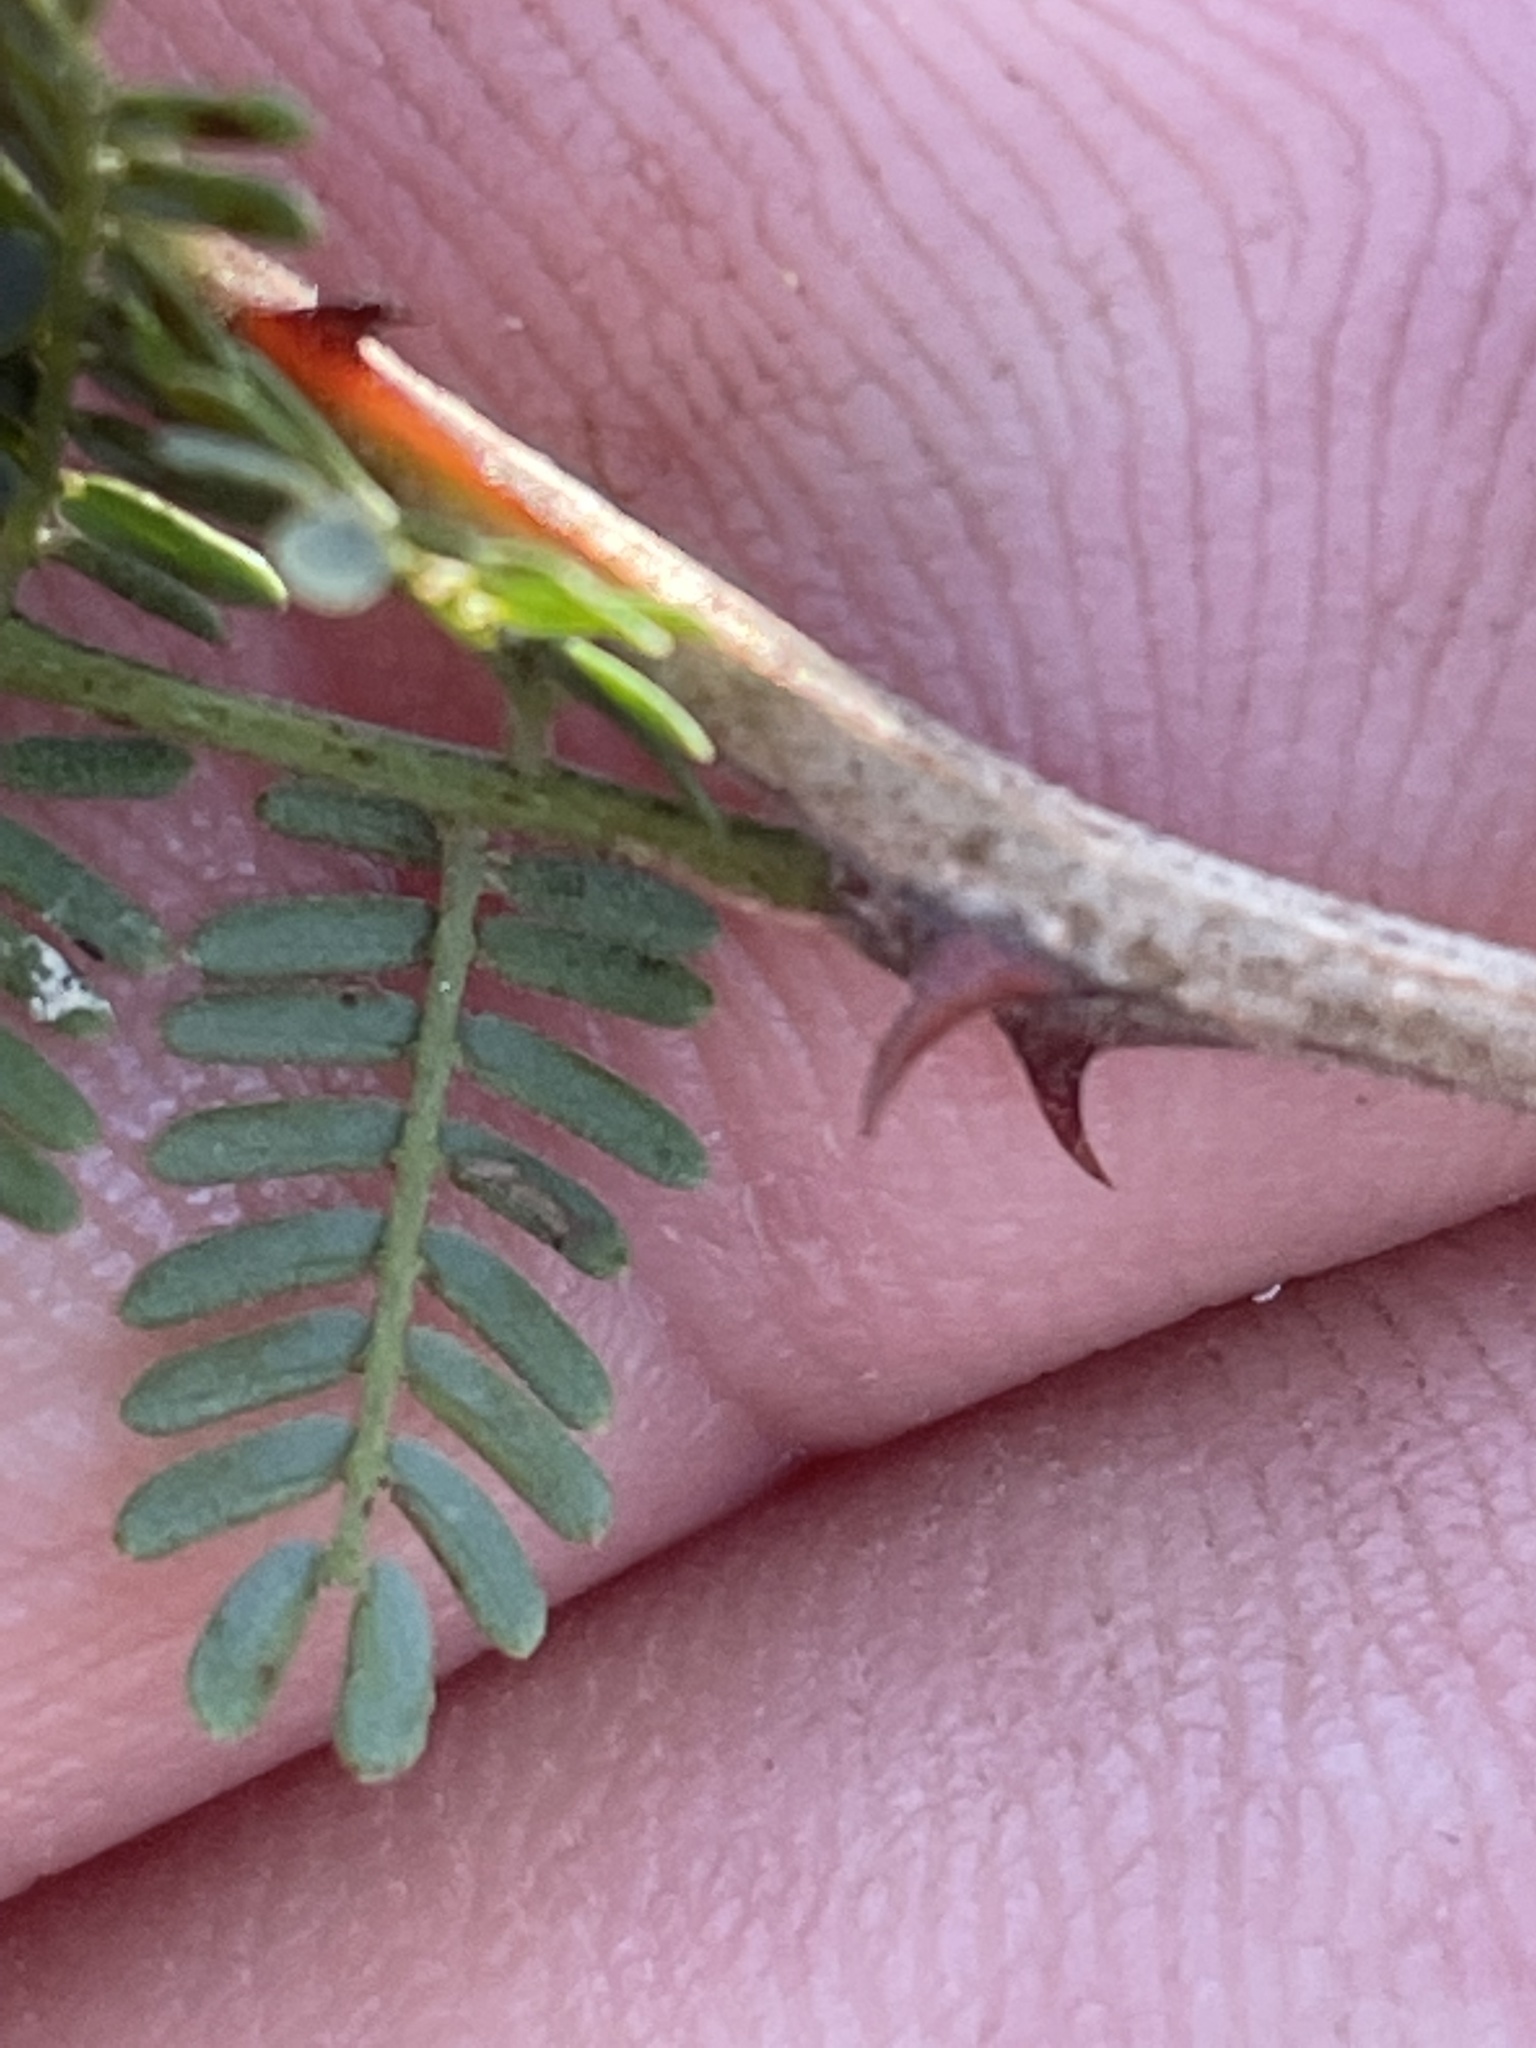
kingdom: Plantae
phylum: Tracheophyta
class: Magnoliopsida
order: Fabales
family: Fabaceae
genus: Mimosa
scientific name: Mimosa aculeaticarpa
